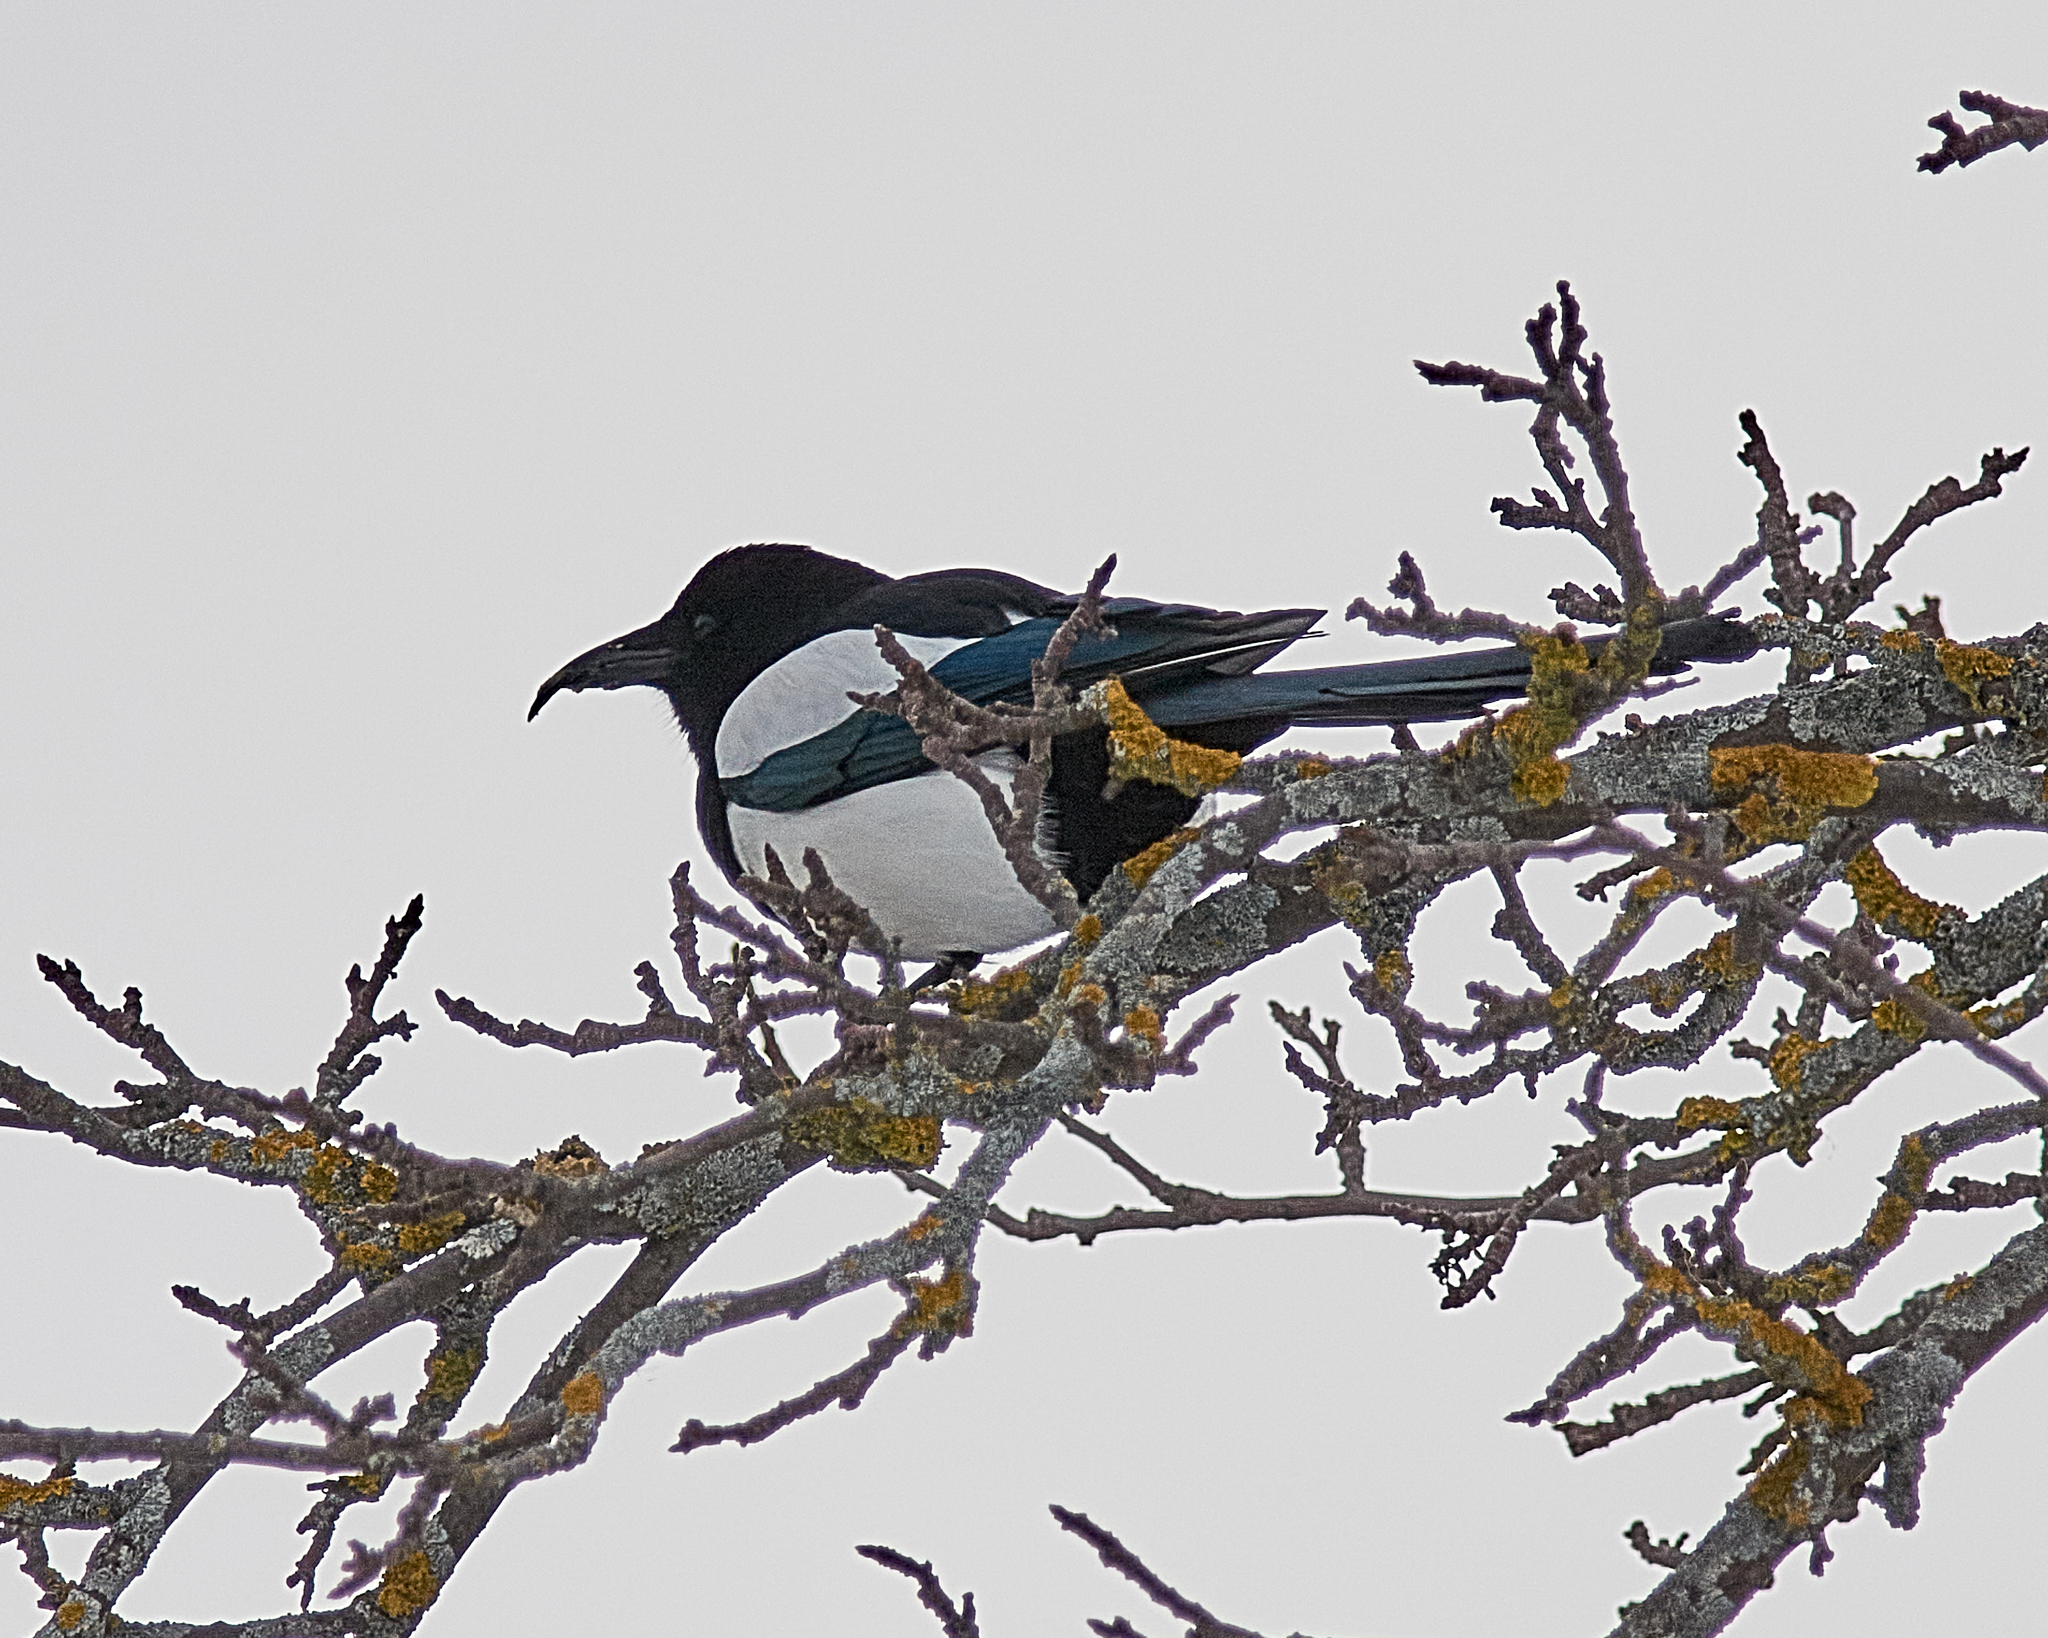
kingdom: Animalia
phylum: Chordata
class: Aves
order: Passeriformes
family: Corvidae
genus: Pica
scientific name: Pica pica
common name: Eurasian magpie
